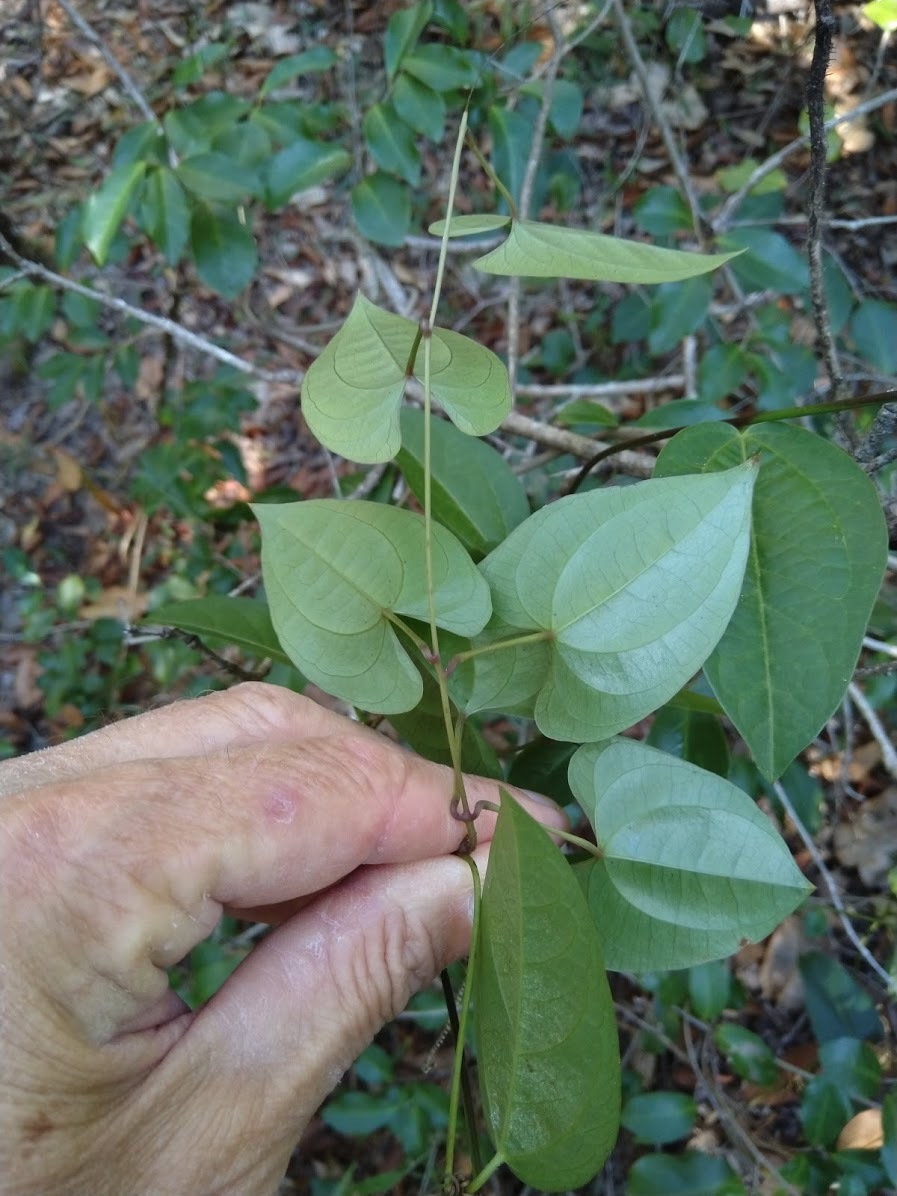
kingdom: Plantae
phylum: Tracheophyta
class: Liliopsida
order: Dioscoreales
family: Dioscoreaceae
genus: Dioscorea
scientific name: Dioscorea transversa
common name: Long yam
